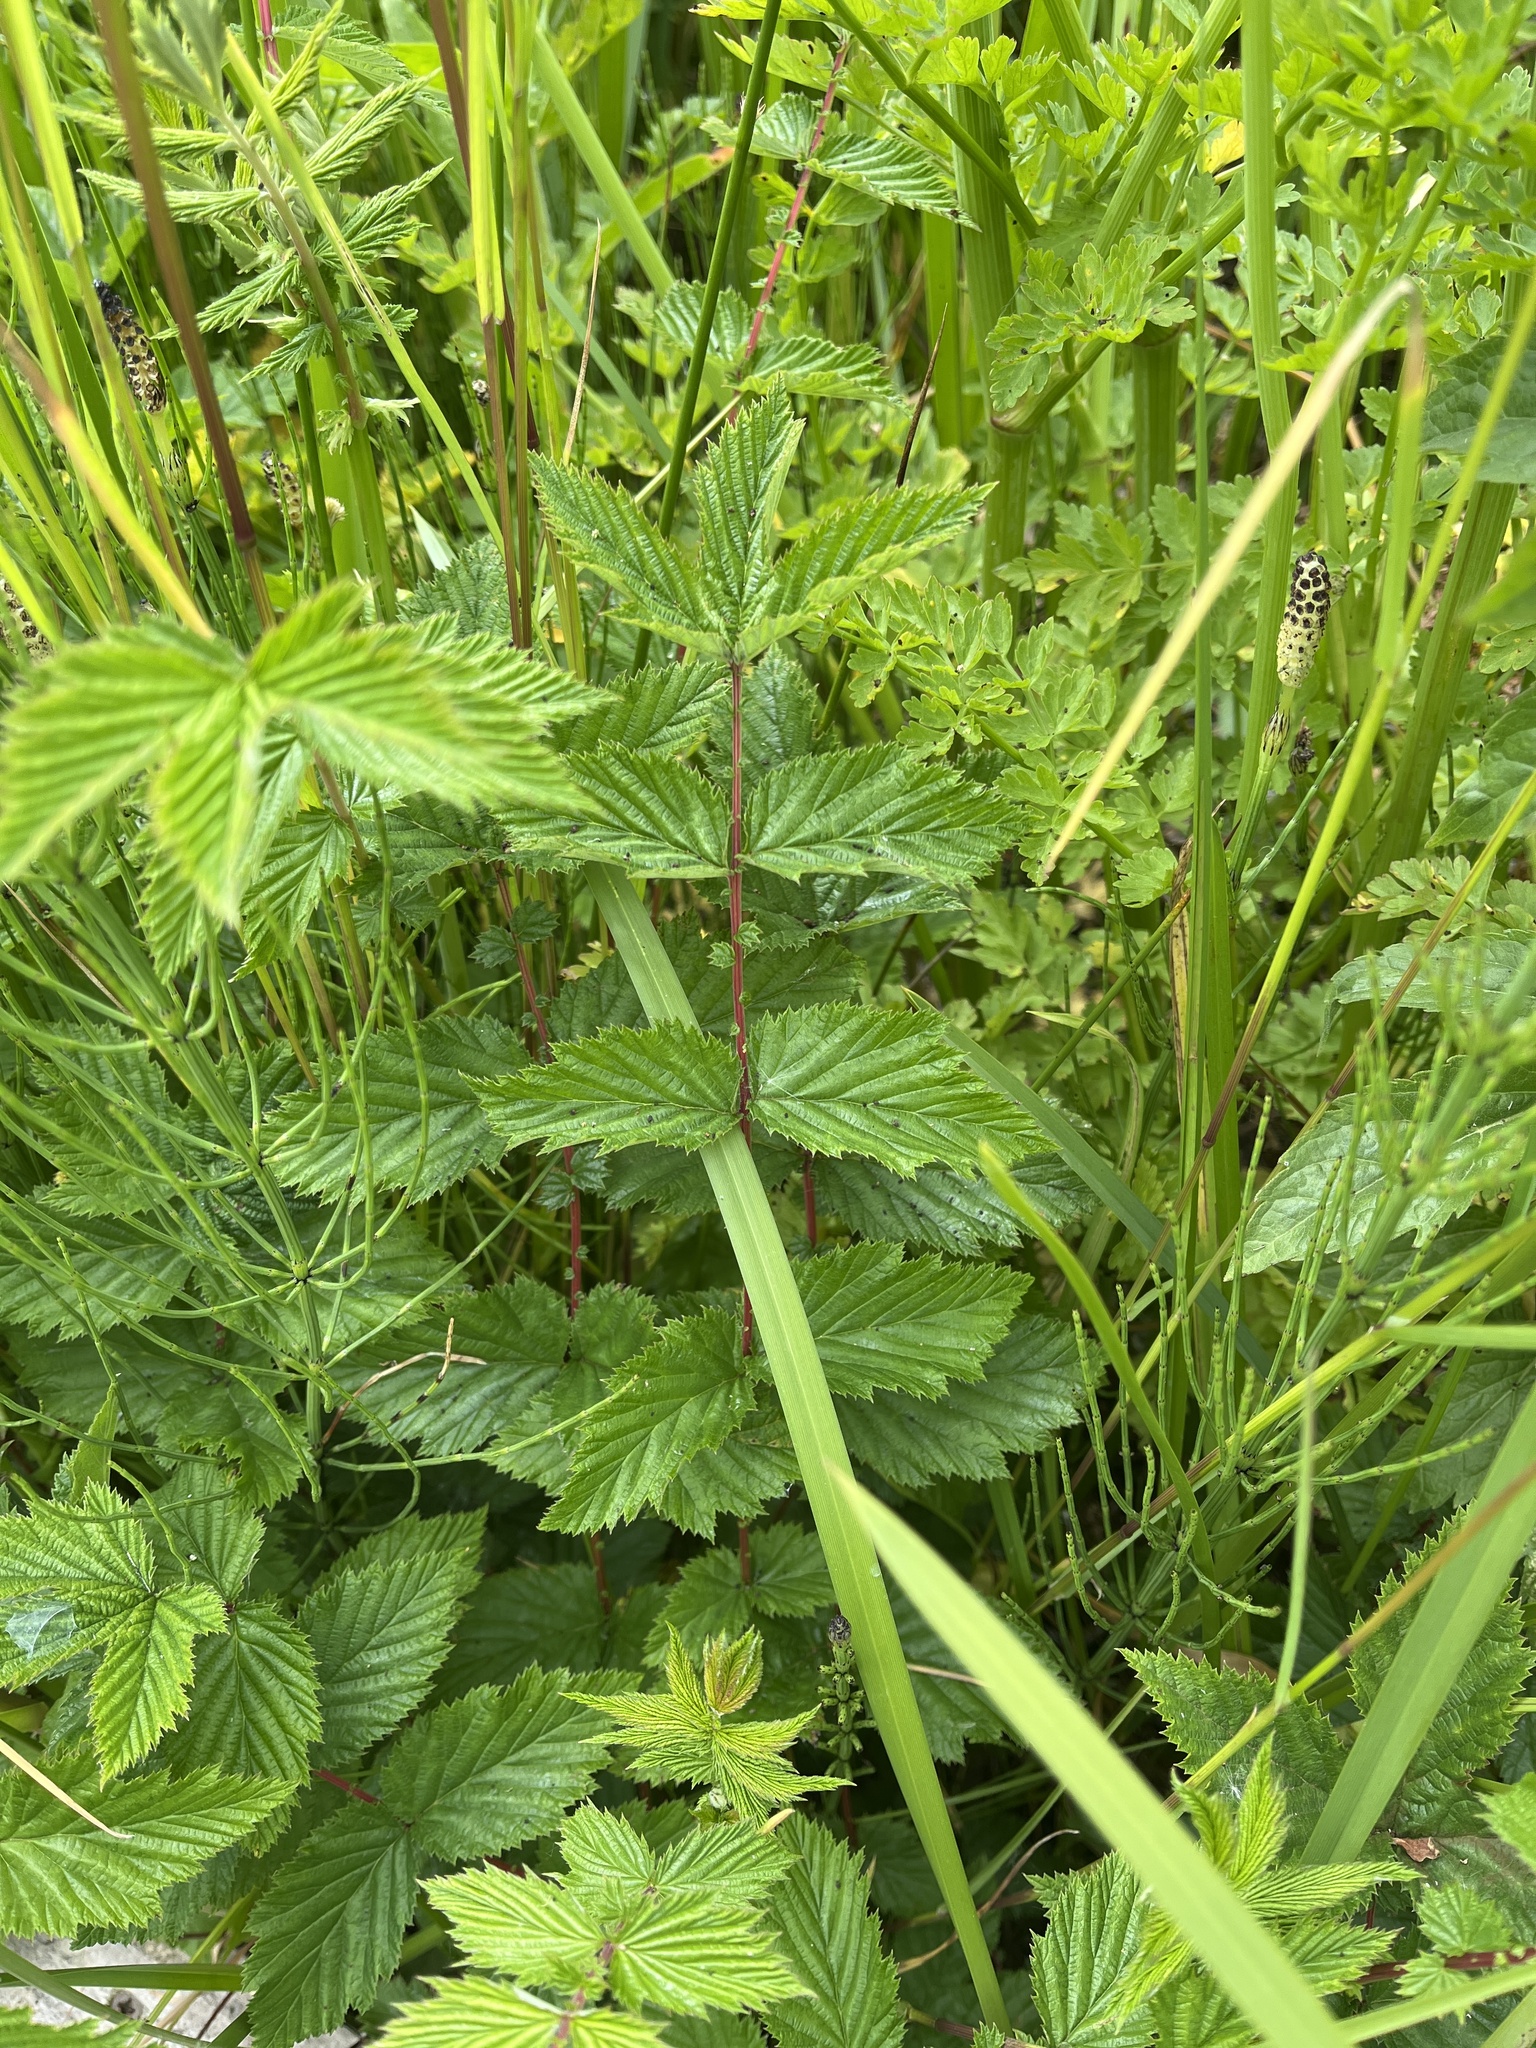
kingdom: Plantae
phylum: Tracheophyta
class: Magnoliopsida
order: Rosales
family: Rosaceae
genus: Filipendula
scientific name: Filipendula ulmaria
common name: Meadowsweet
